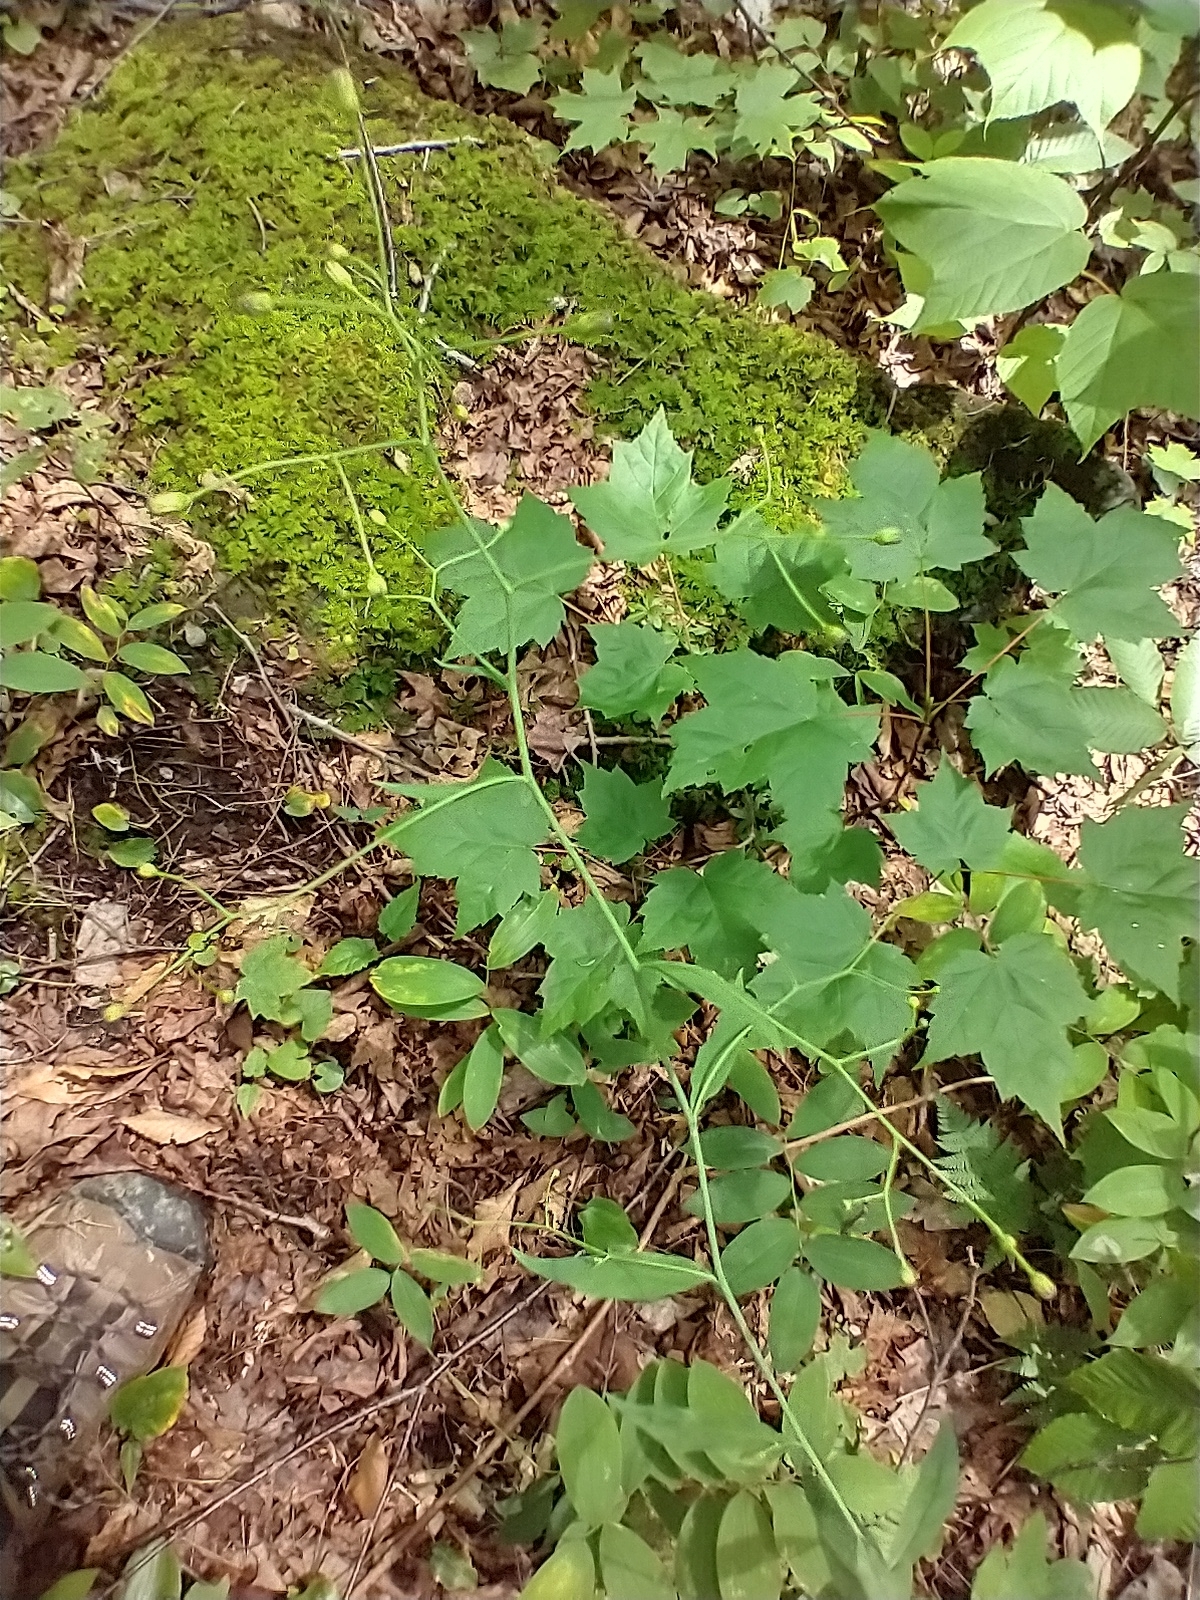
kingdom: Plantae
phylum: Tracheophyta
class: Magnoliopsida
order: Asterales
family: Asteraceae
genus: Hieracium
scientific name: Hieracium paniculatum
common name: Allegheny hawkweed
